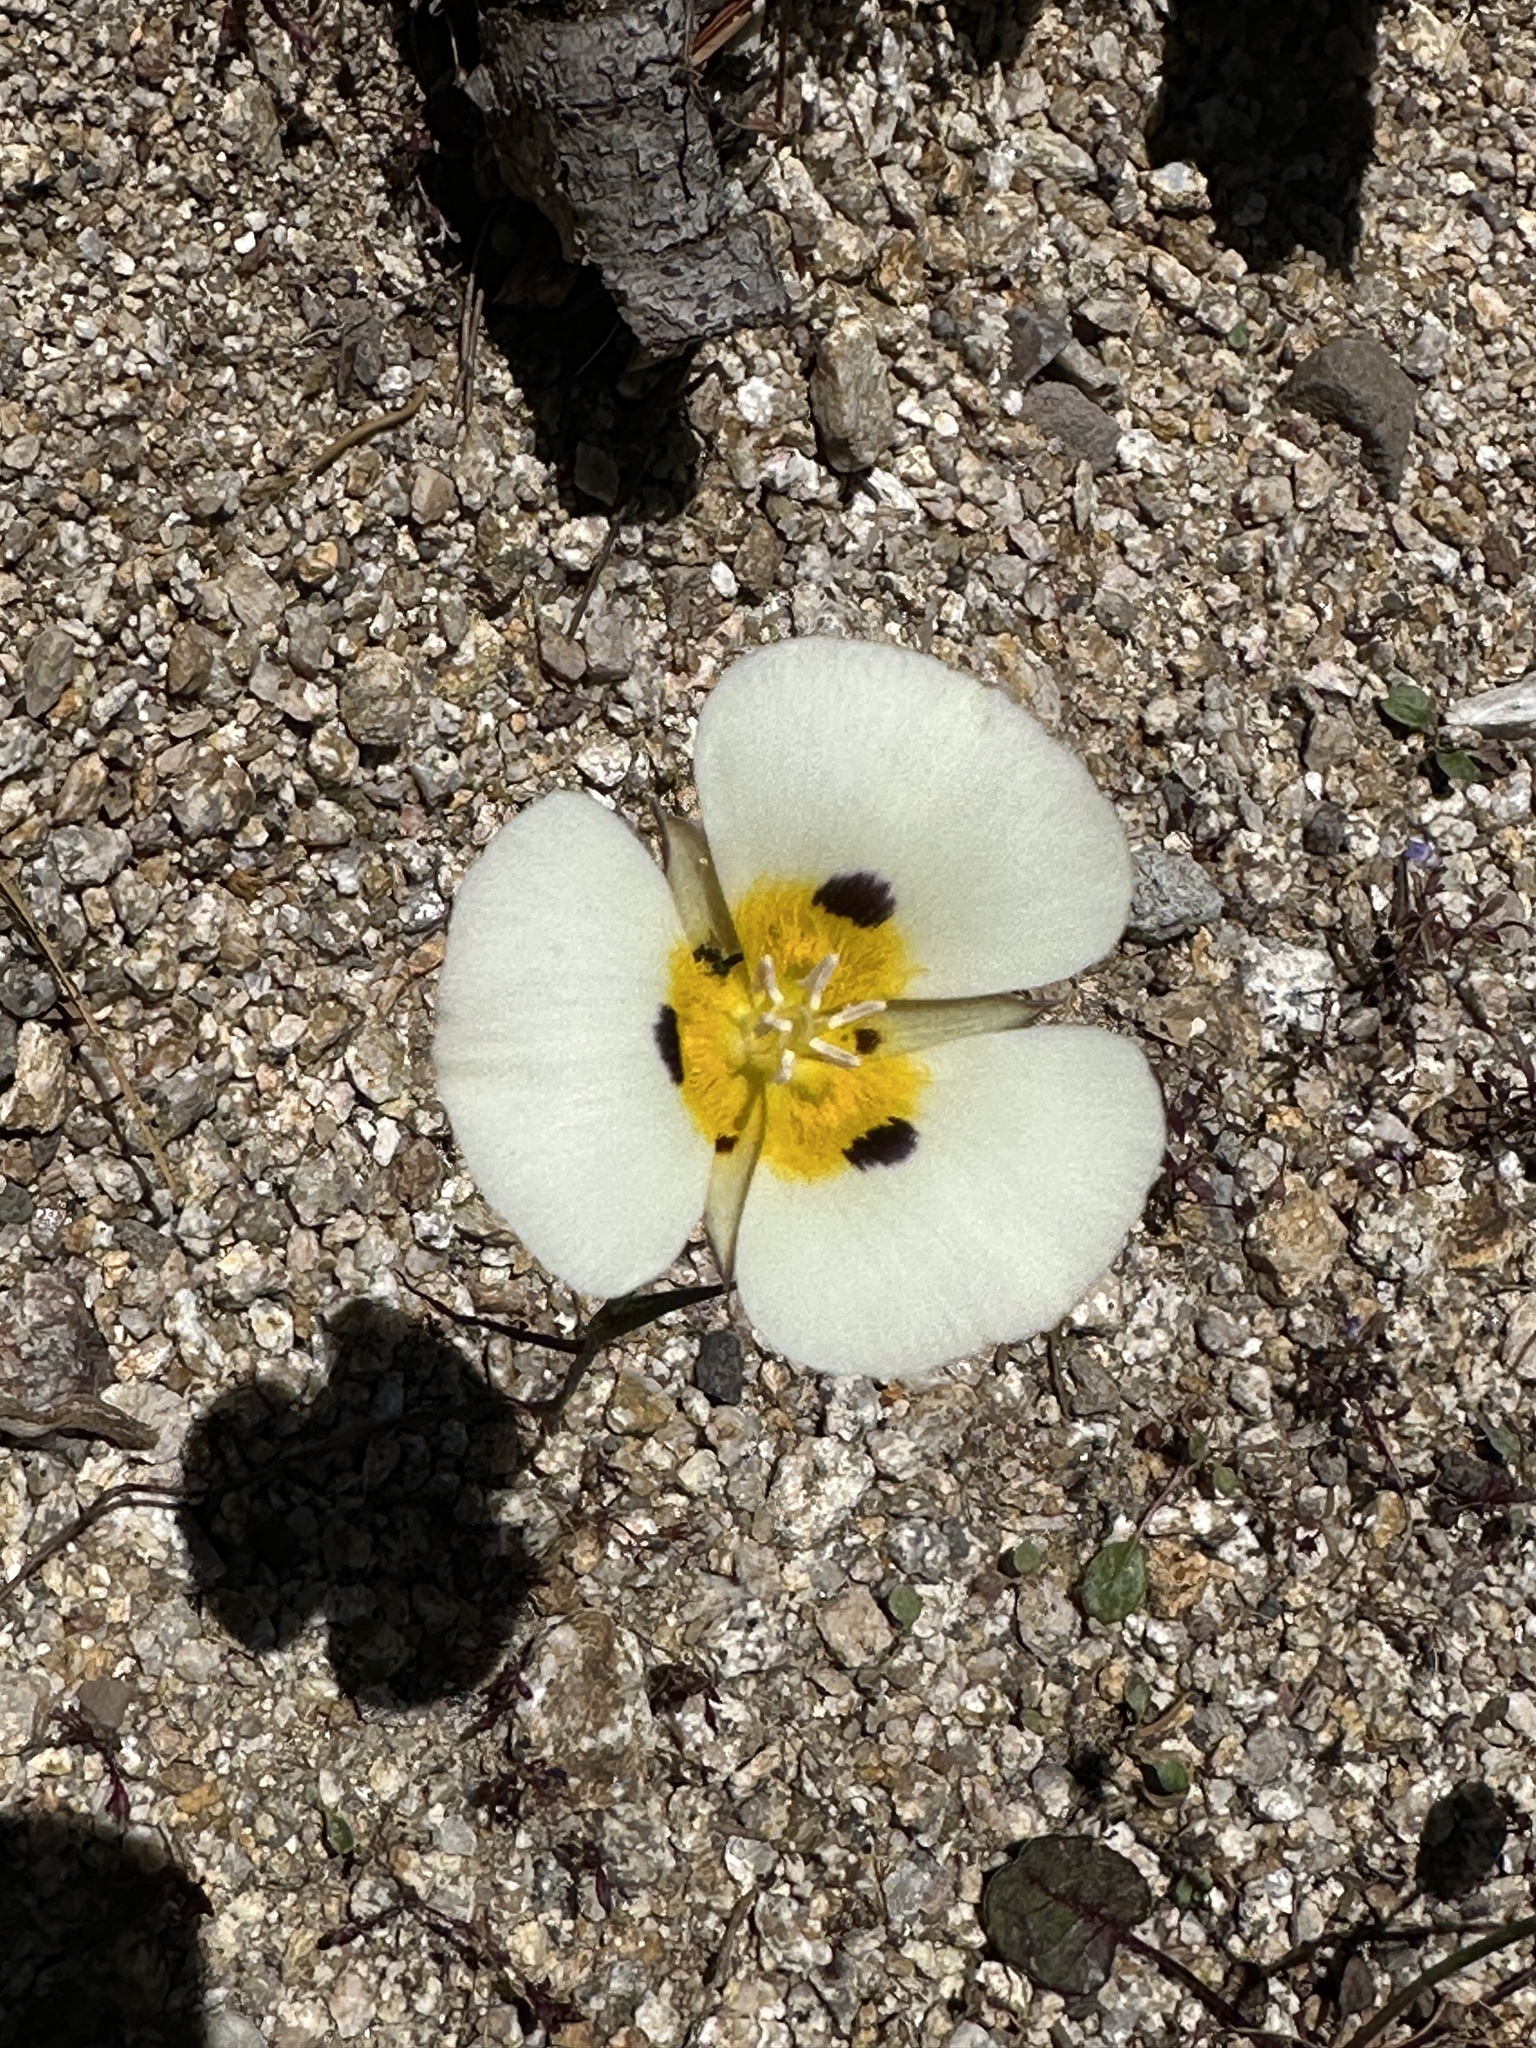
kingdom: Plantae
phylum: Tracheophyta
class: Liliopsida
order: Liliales
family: Liliaceae
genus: Calochortus
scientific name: Calochortus leichtlinii
